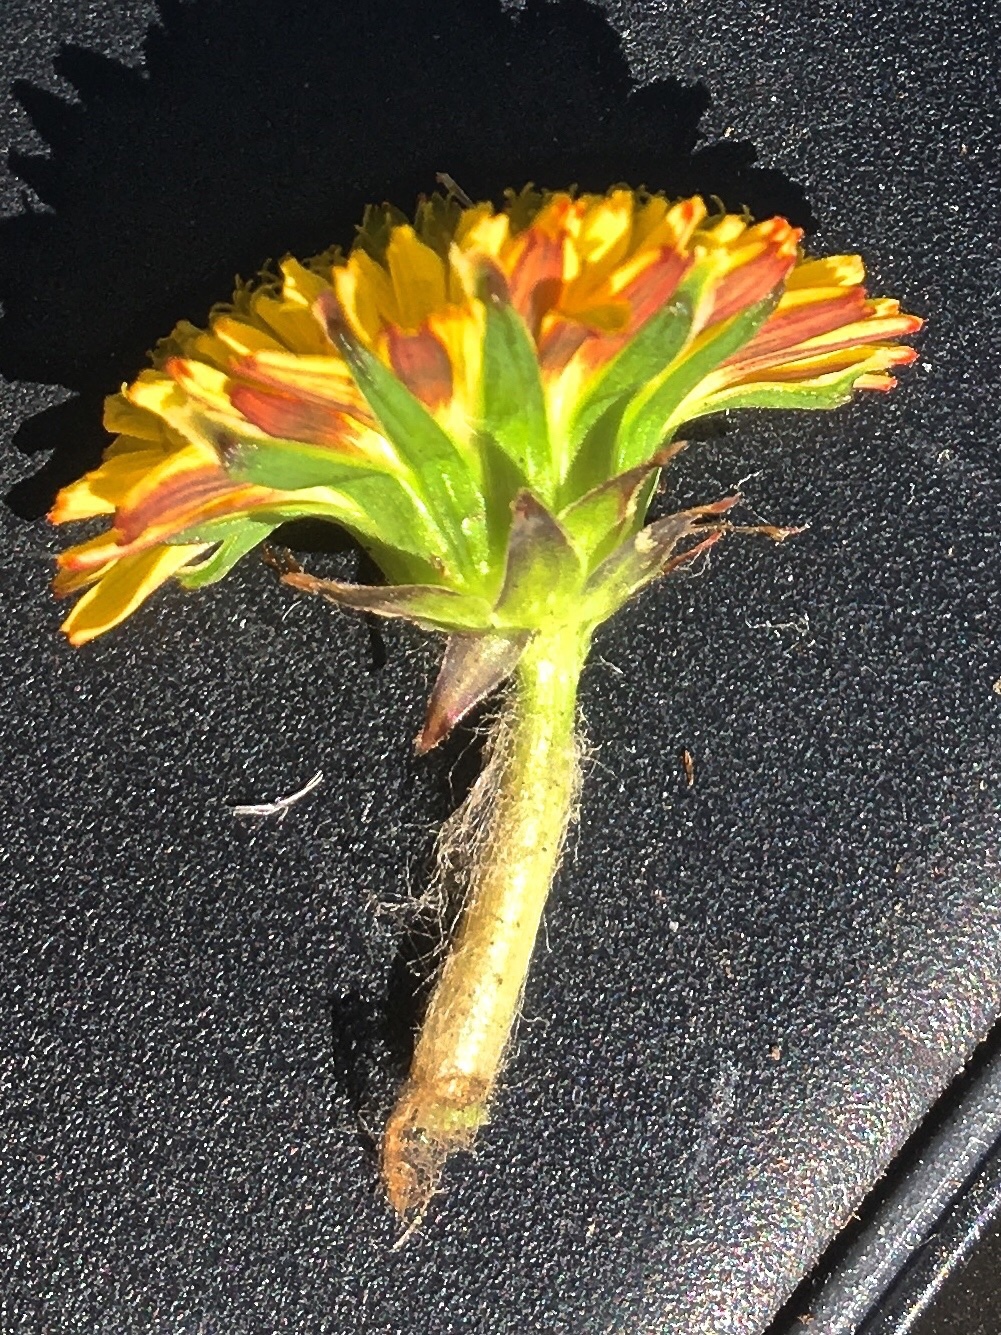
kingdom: Plantae
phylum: Tracheophyta
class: Magnoliopsida
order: Asterales
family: Asteraceae
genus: Taraxacum
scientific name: Taraxacum erythrospermum
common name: Rock dandelion
